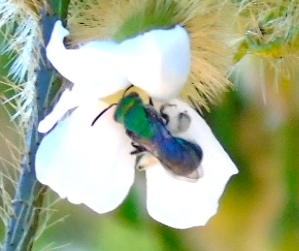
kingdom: Animalia
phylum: Arthropoda
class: Insecta
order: Hymenoptera
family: Halictidae
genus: Augochlora
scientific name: Augochlora
